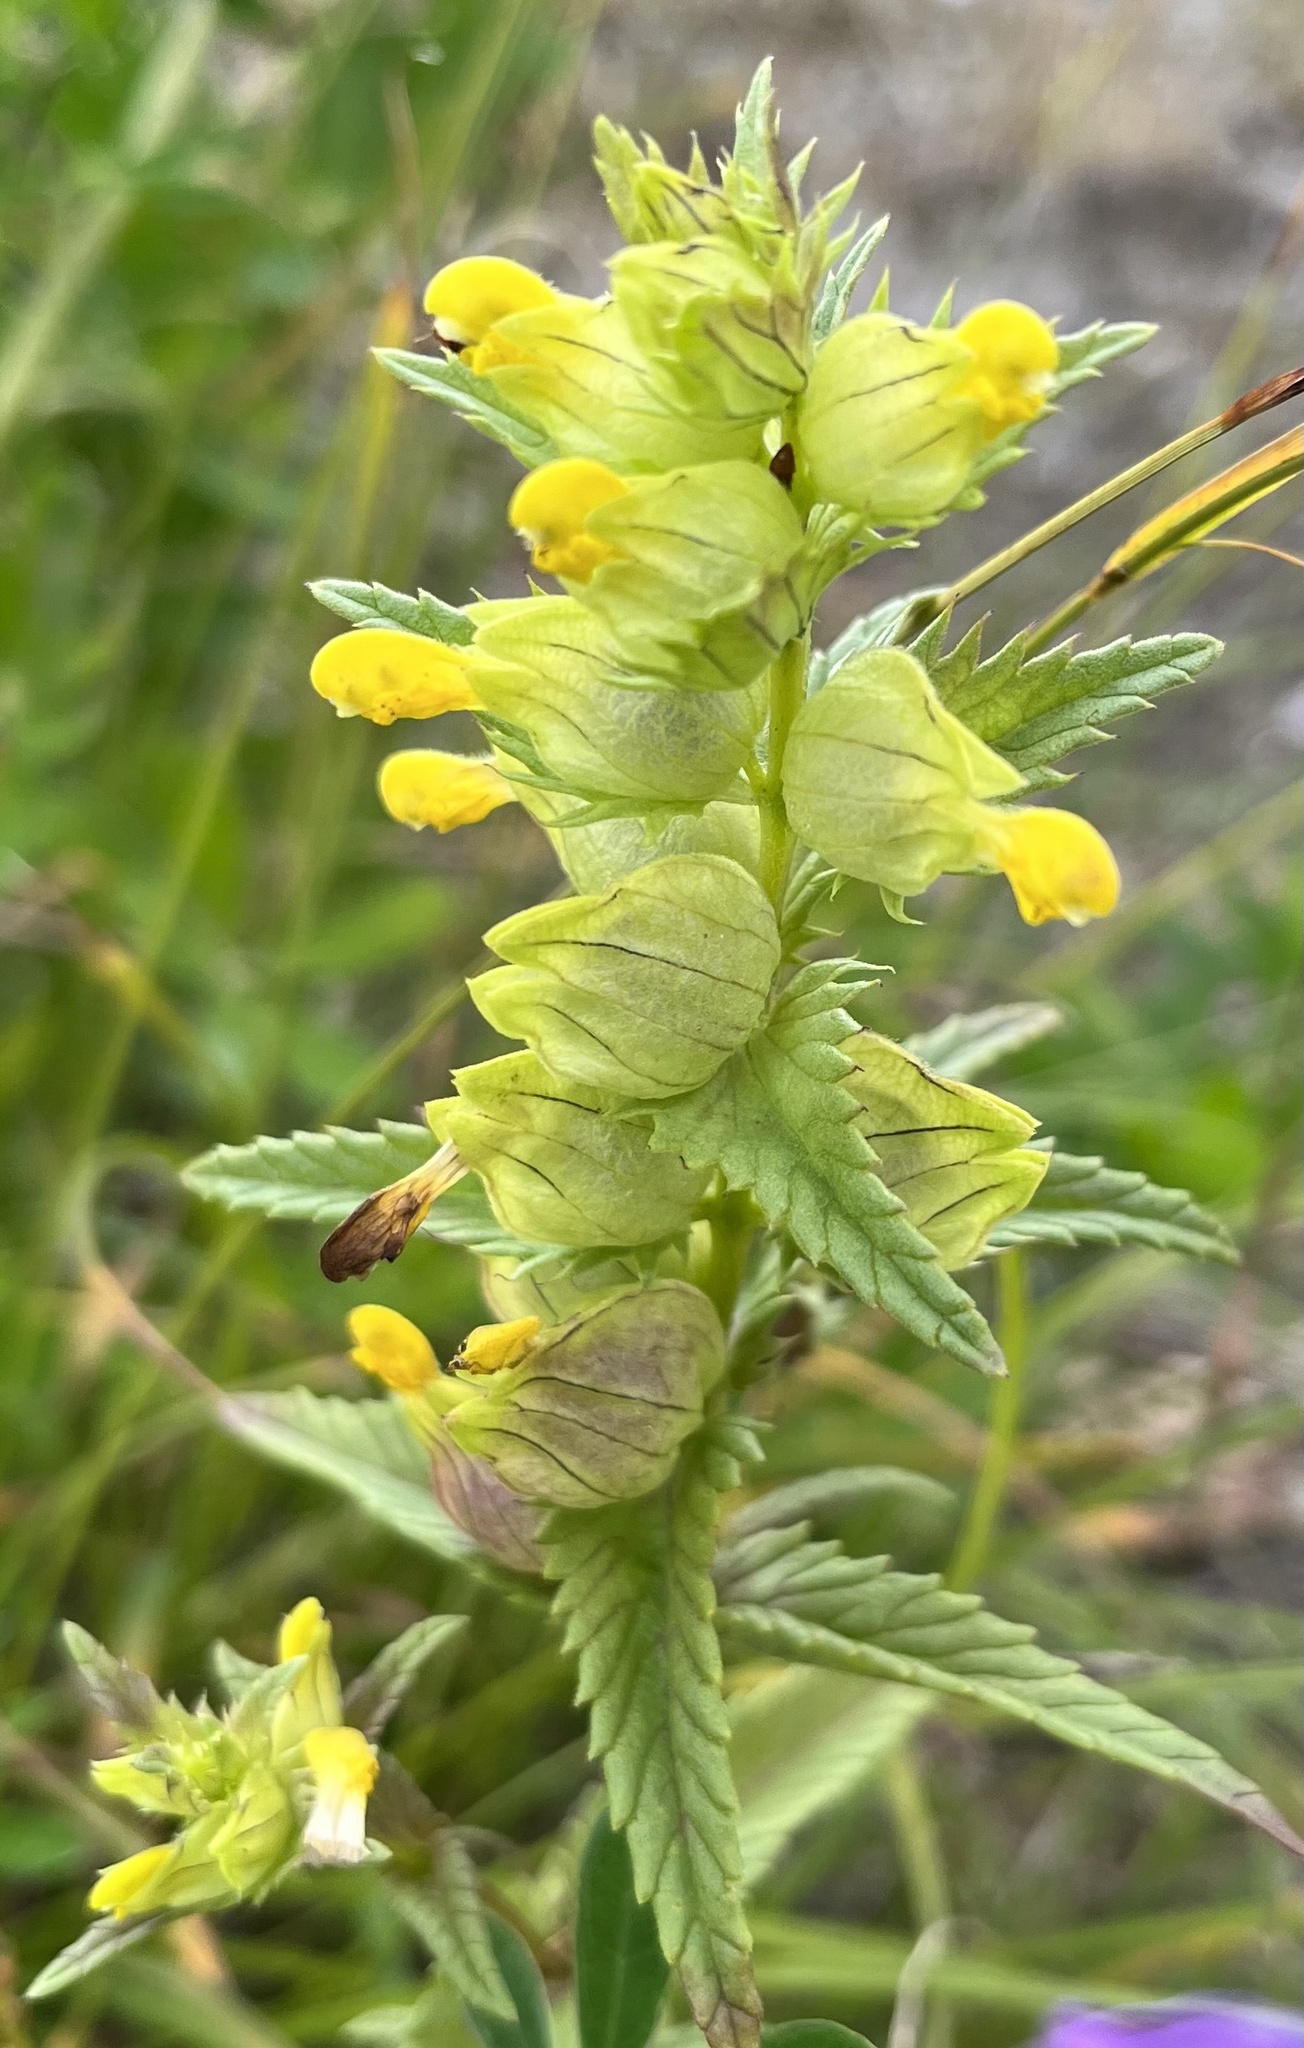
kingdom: Plantae
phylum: Tracheophyta
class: Magnoliopsida
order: Lamiales
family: Orobanchaceae
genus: Rhinanthus
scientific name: Rhinanthus minor
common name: Yellow-rattle
